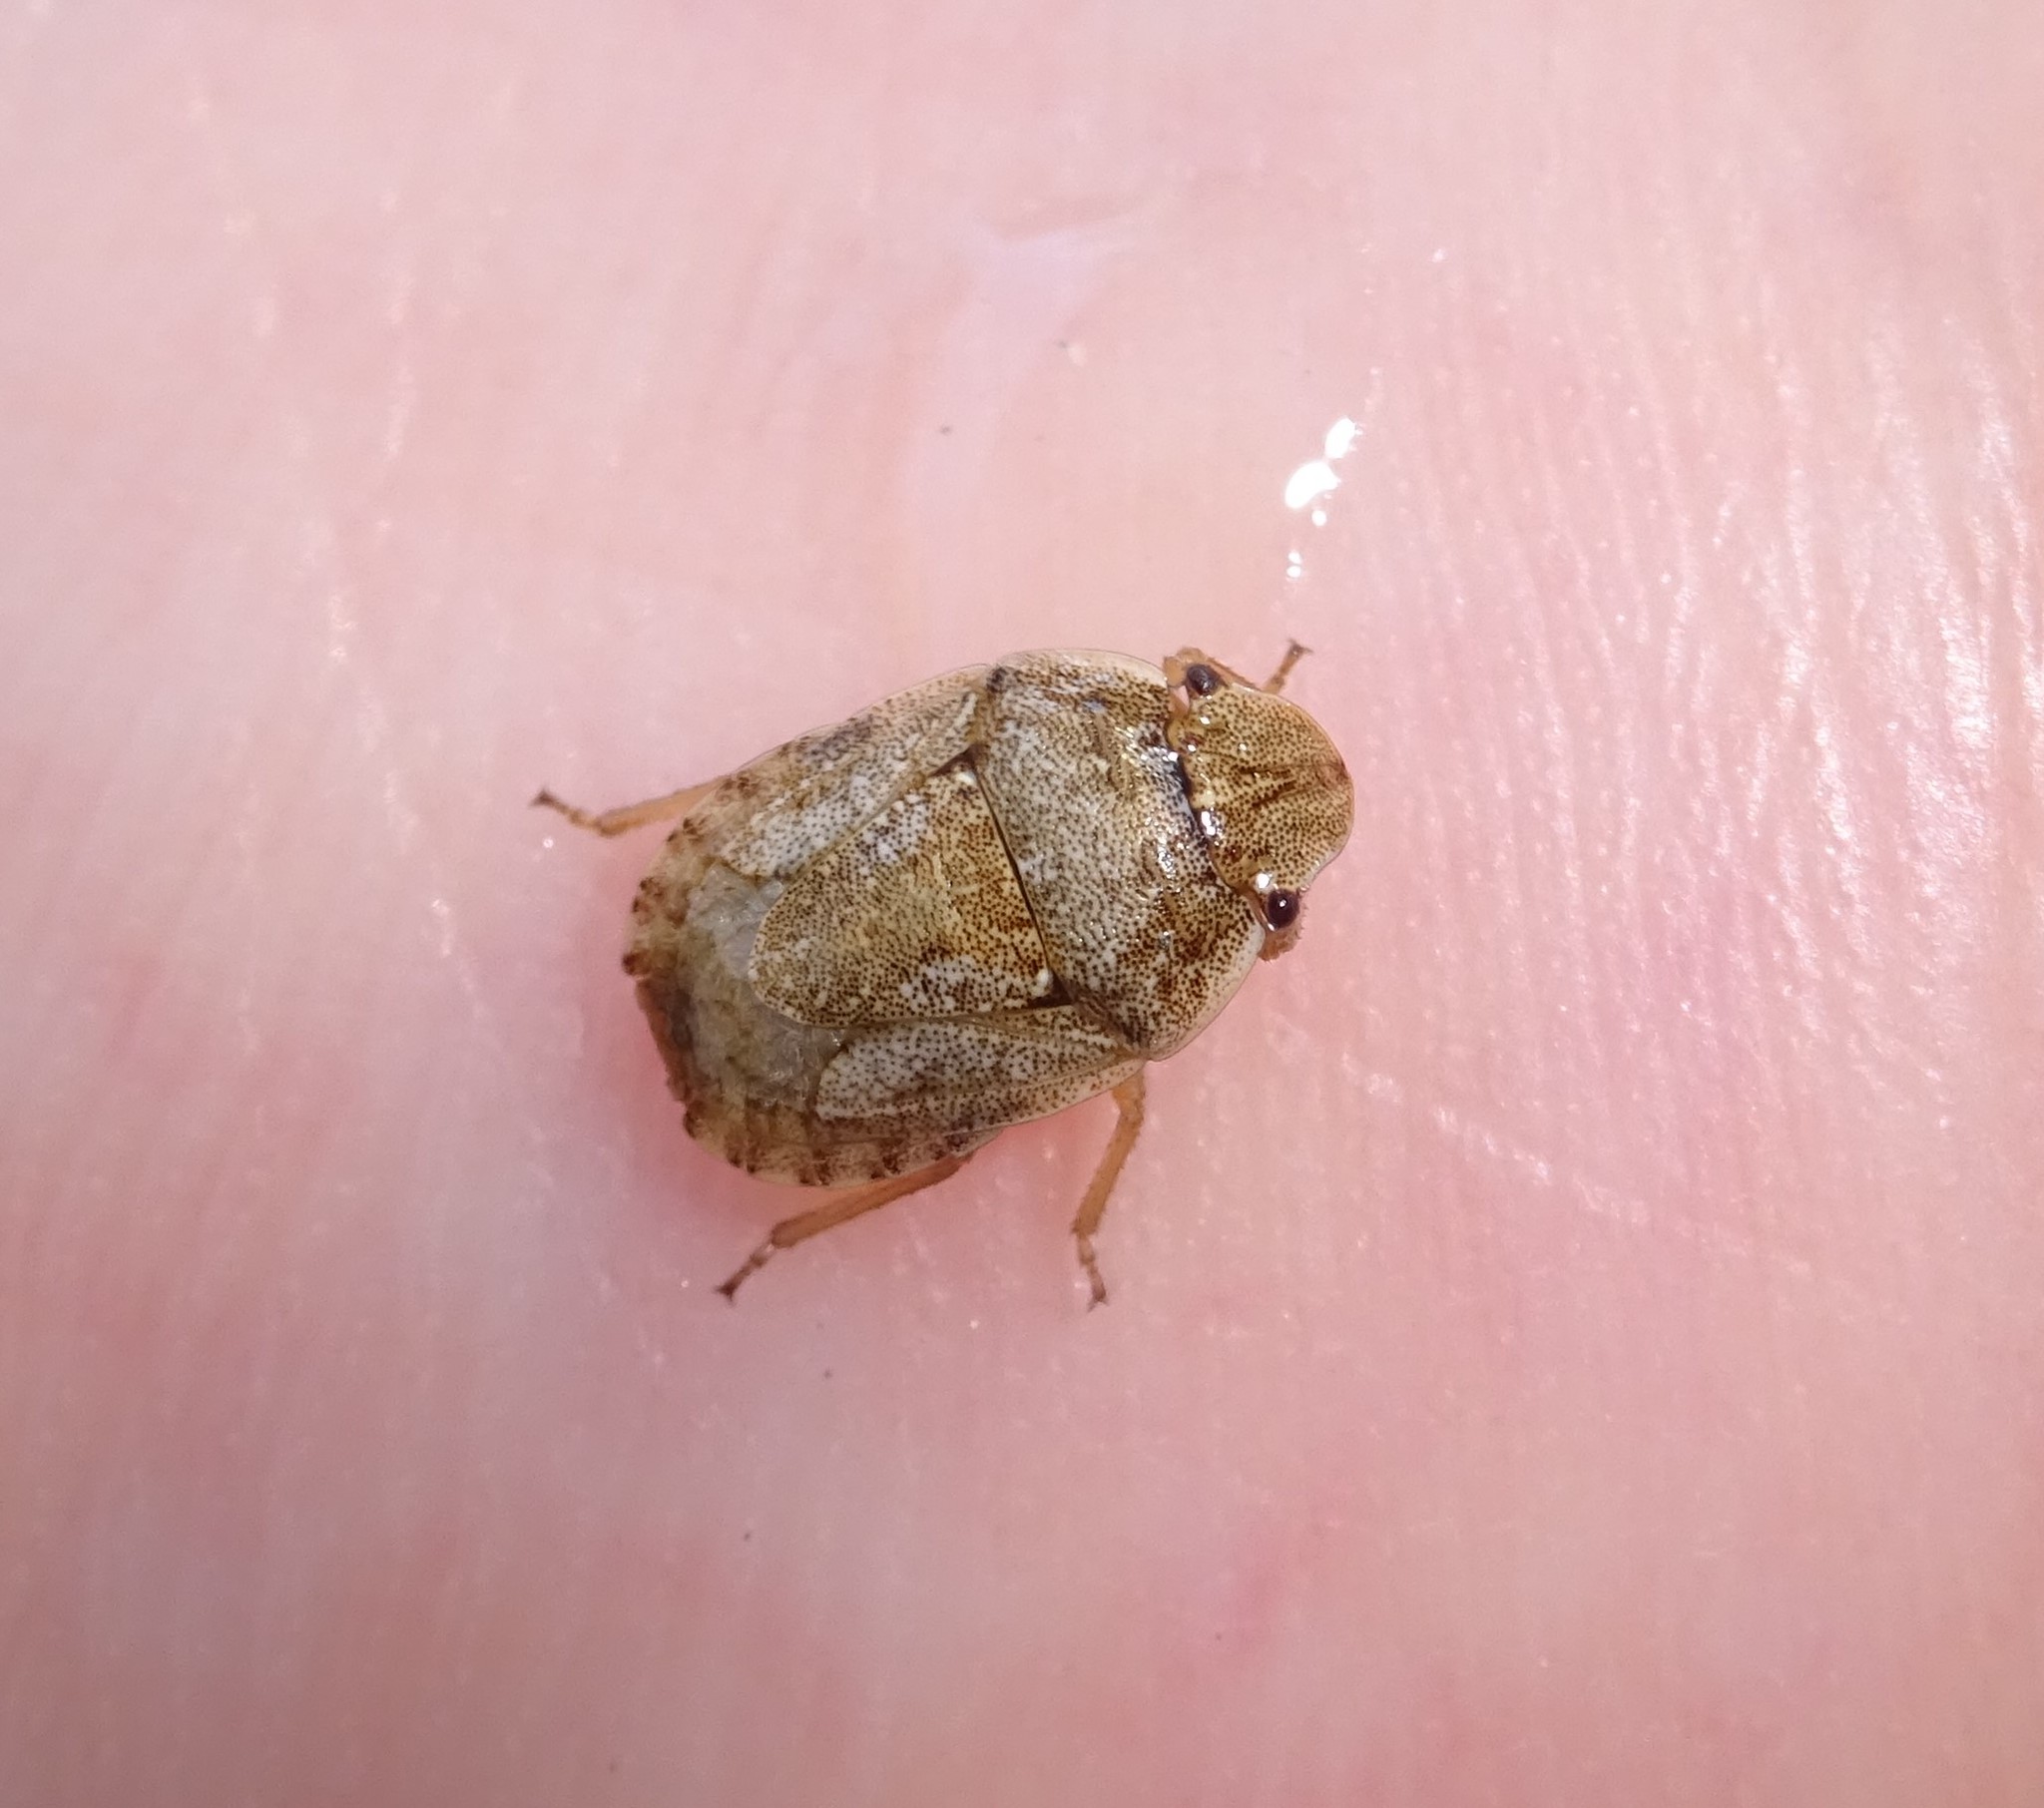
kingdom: Animalia
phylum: Arthropoda
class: Insecta
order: Hemiptera
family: Pentatomidae
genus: Sciocoris
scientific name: Sciocoris helferi
